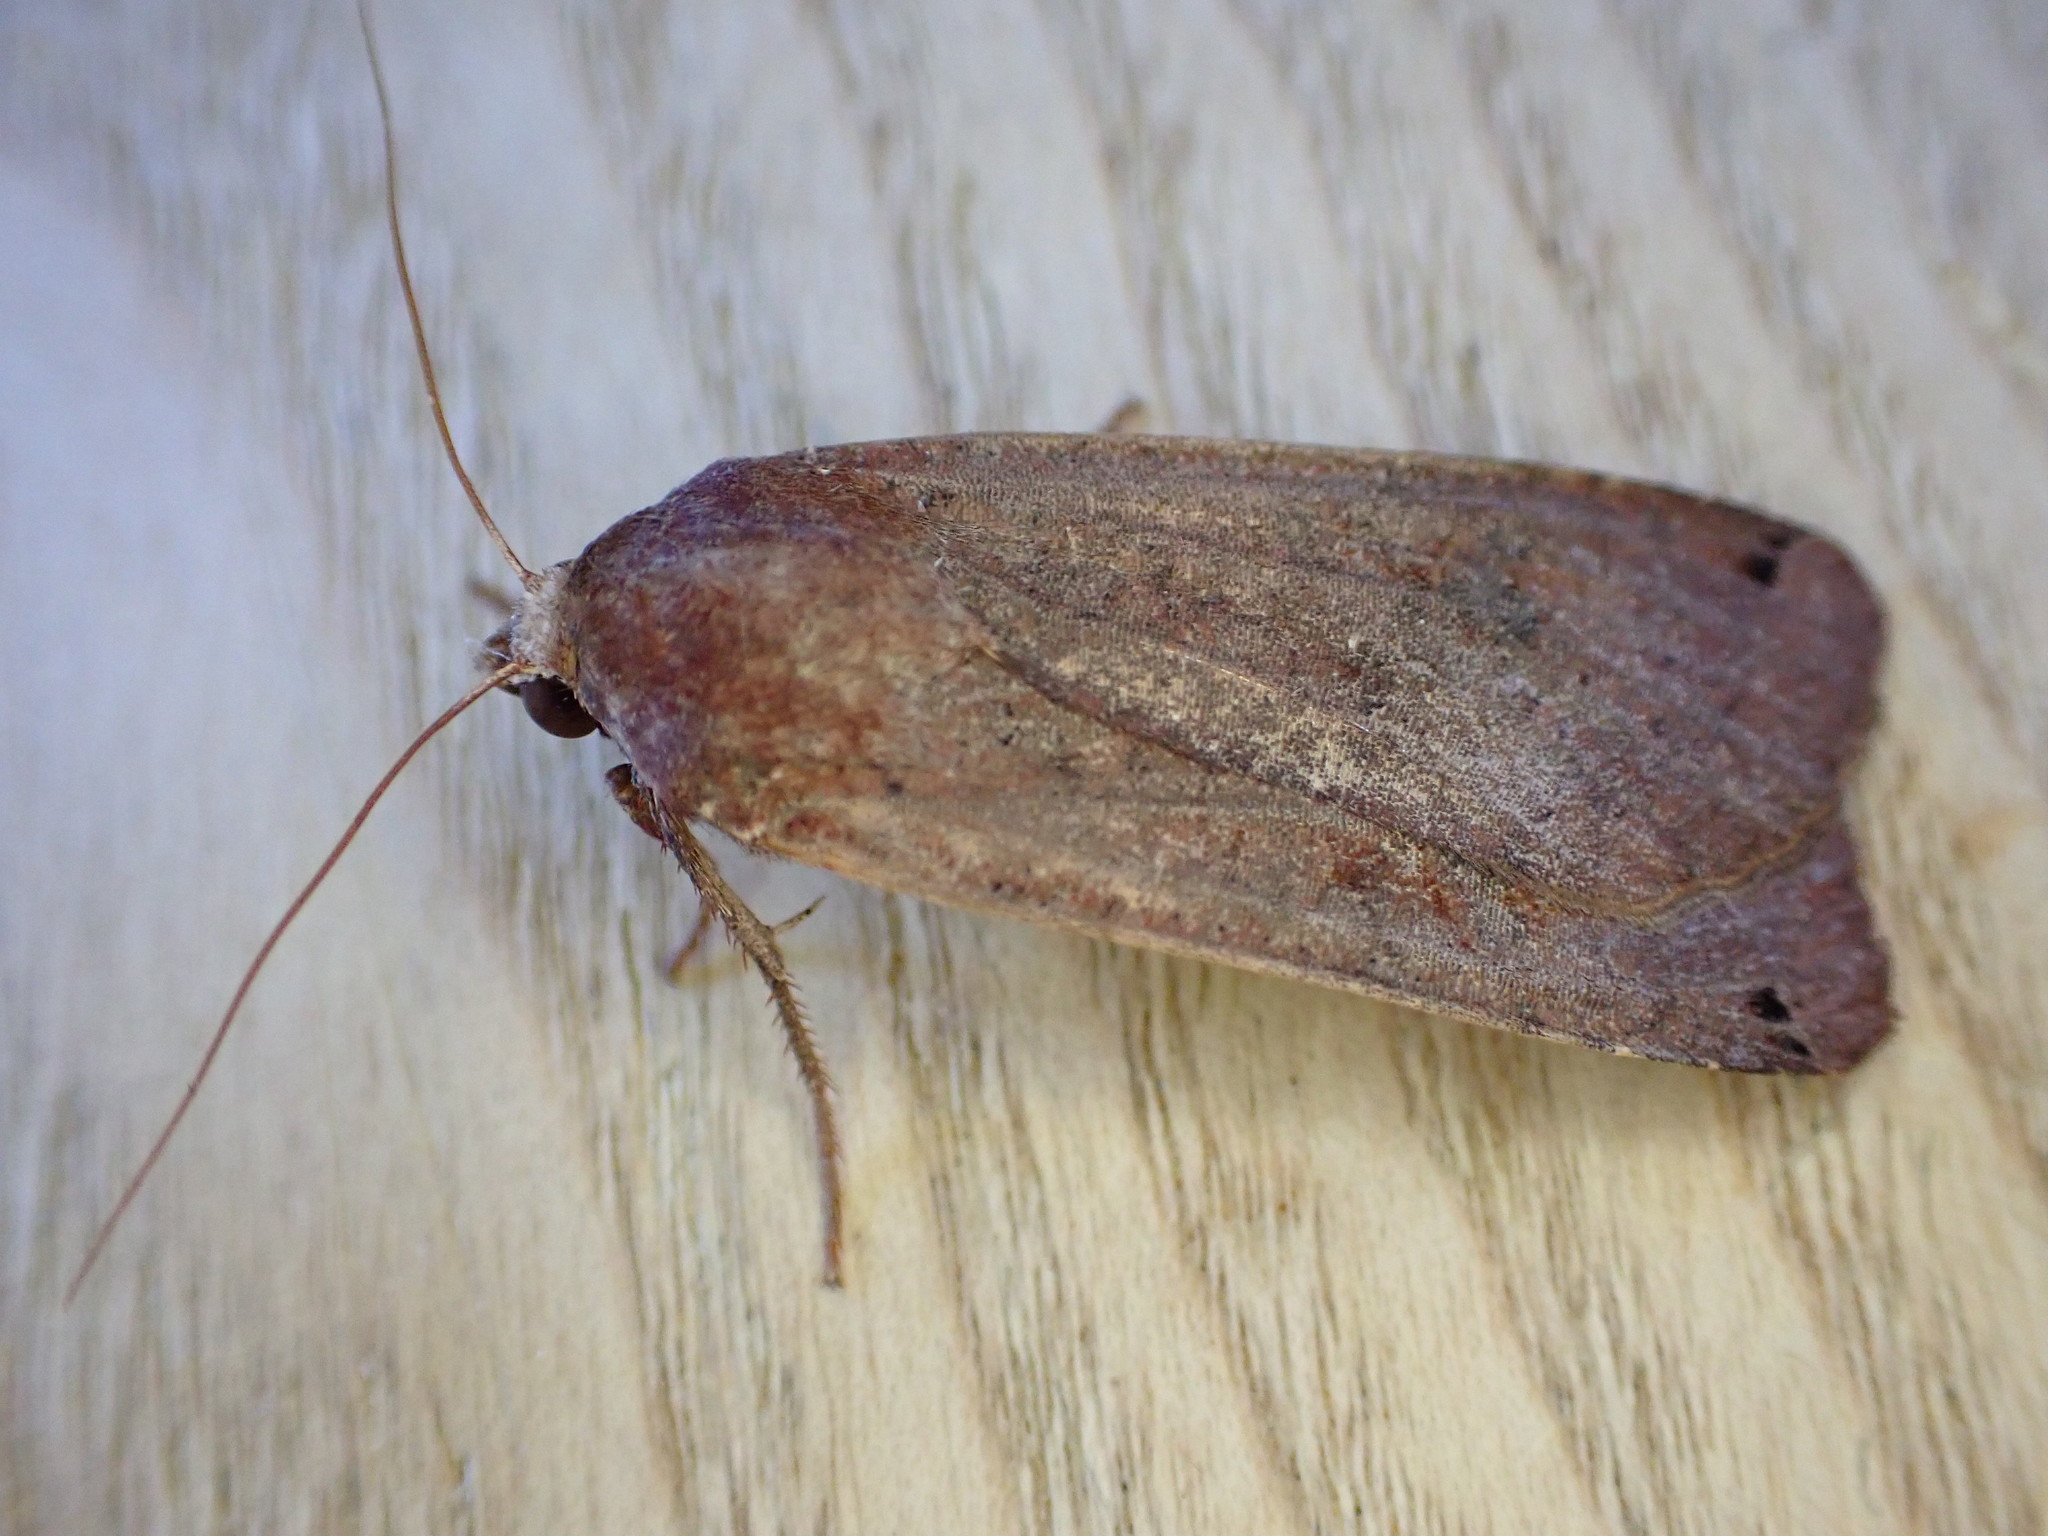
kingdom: Animalia
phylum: Arthropoda
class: Insecta
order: Lepidoptera
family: Noctuidae
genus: Noctua
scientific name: Noctua pronuba
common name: Large yellow underwing
